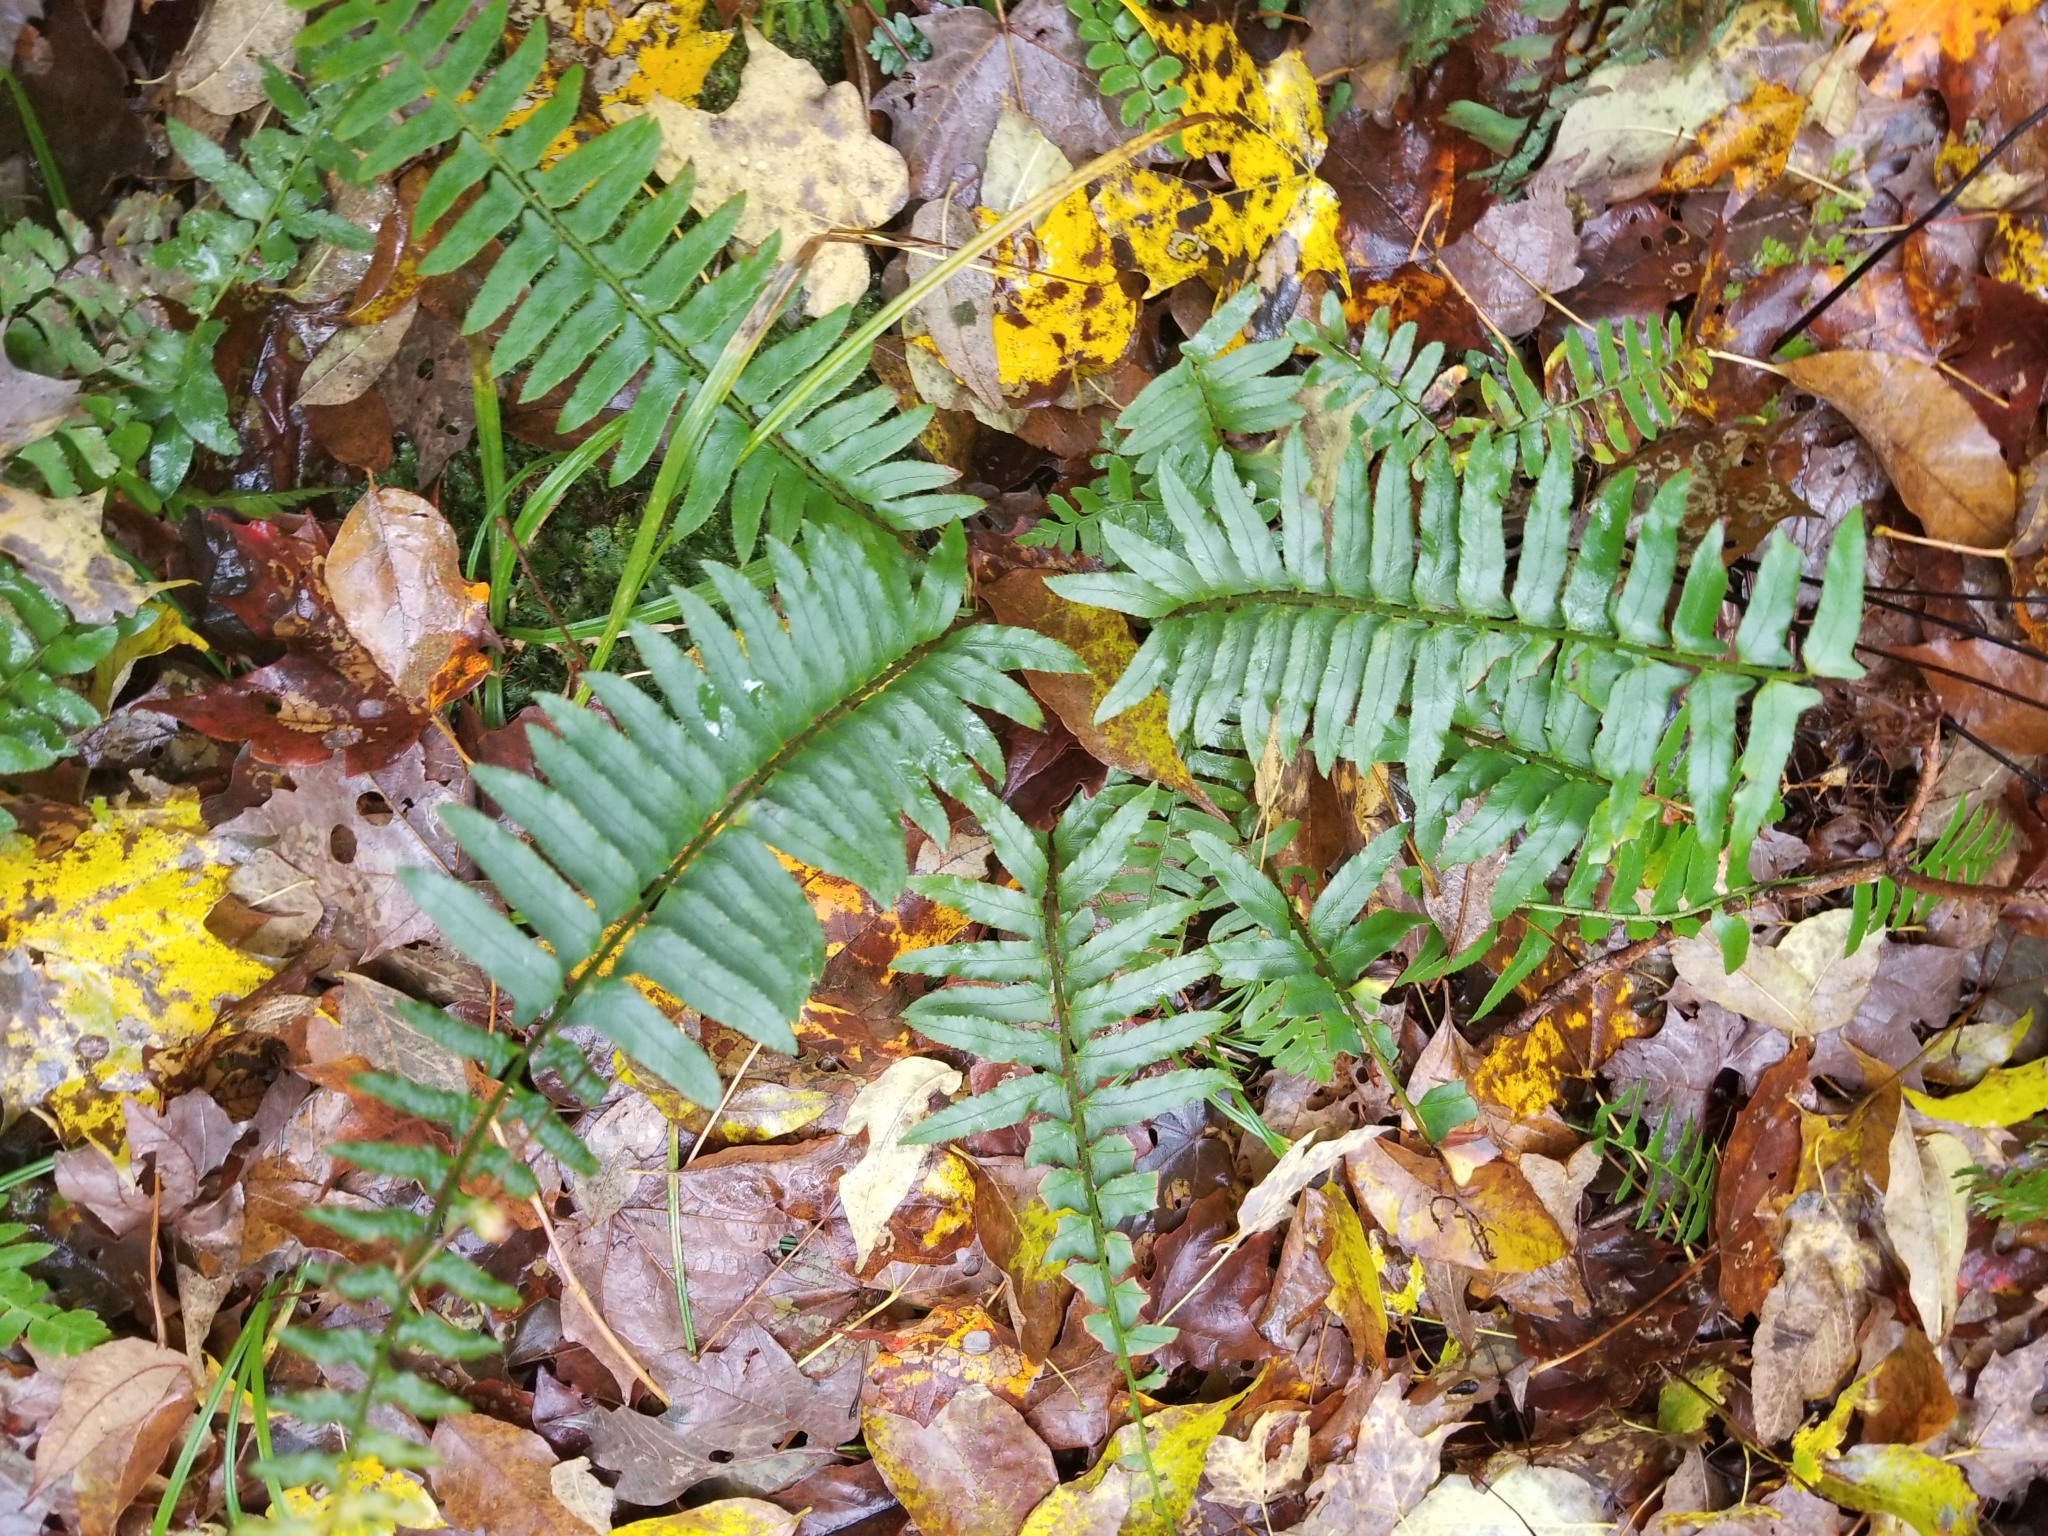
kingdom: Plantae
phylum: Tracheophyta
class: Polypodiopsida
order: Polypodiales
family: Dryopteridaceae
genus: Polystichum
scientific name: Polystichum acrostichoides
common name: Christmas fern
